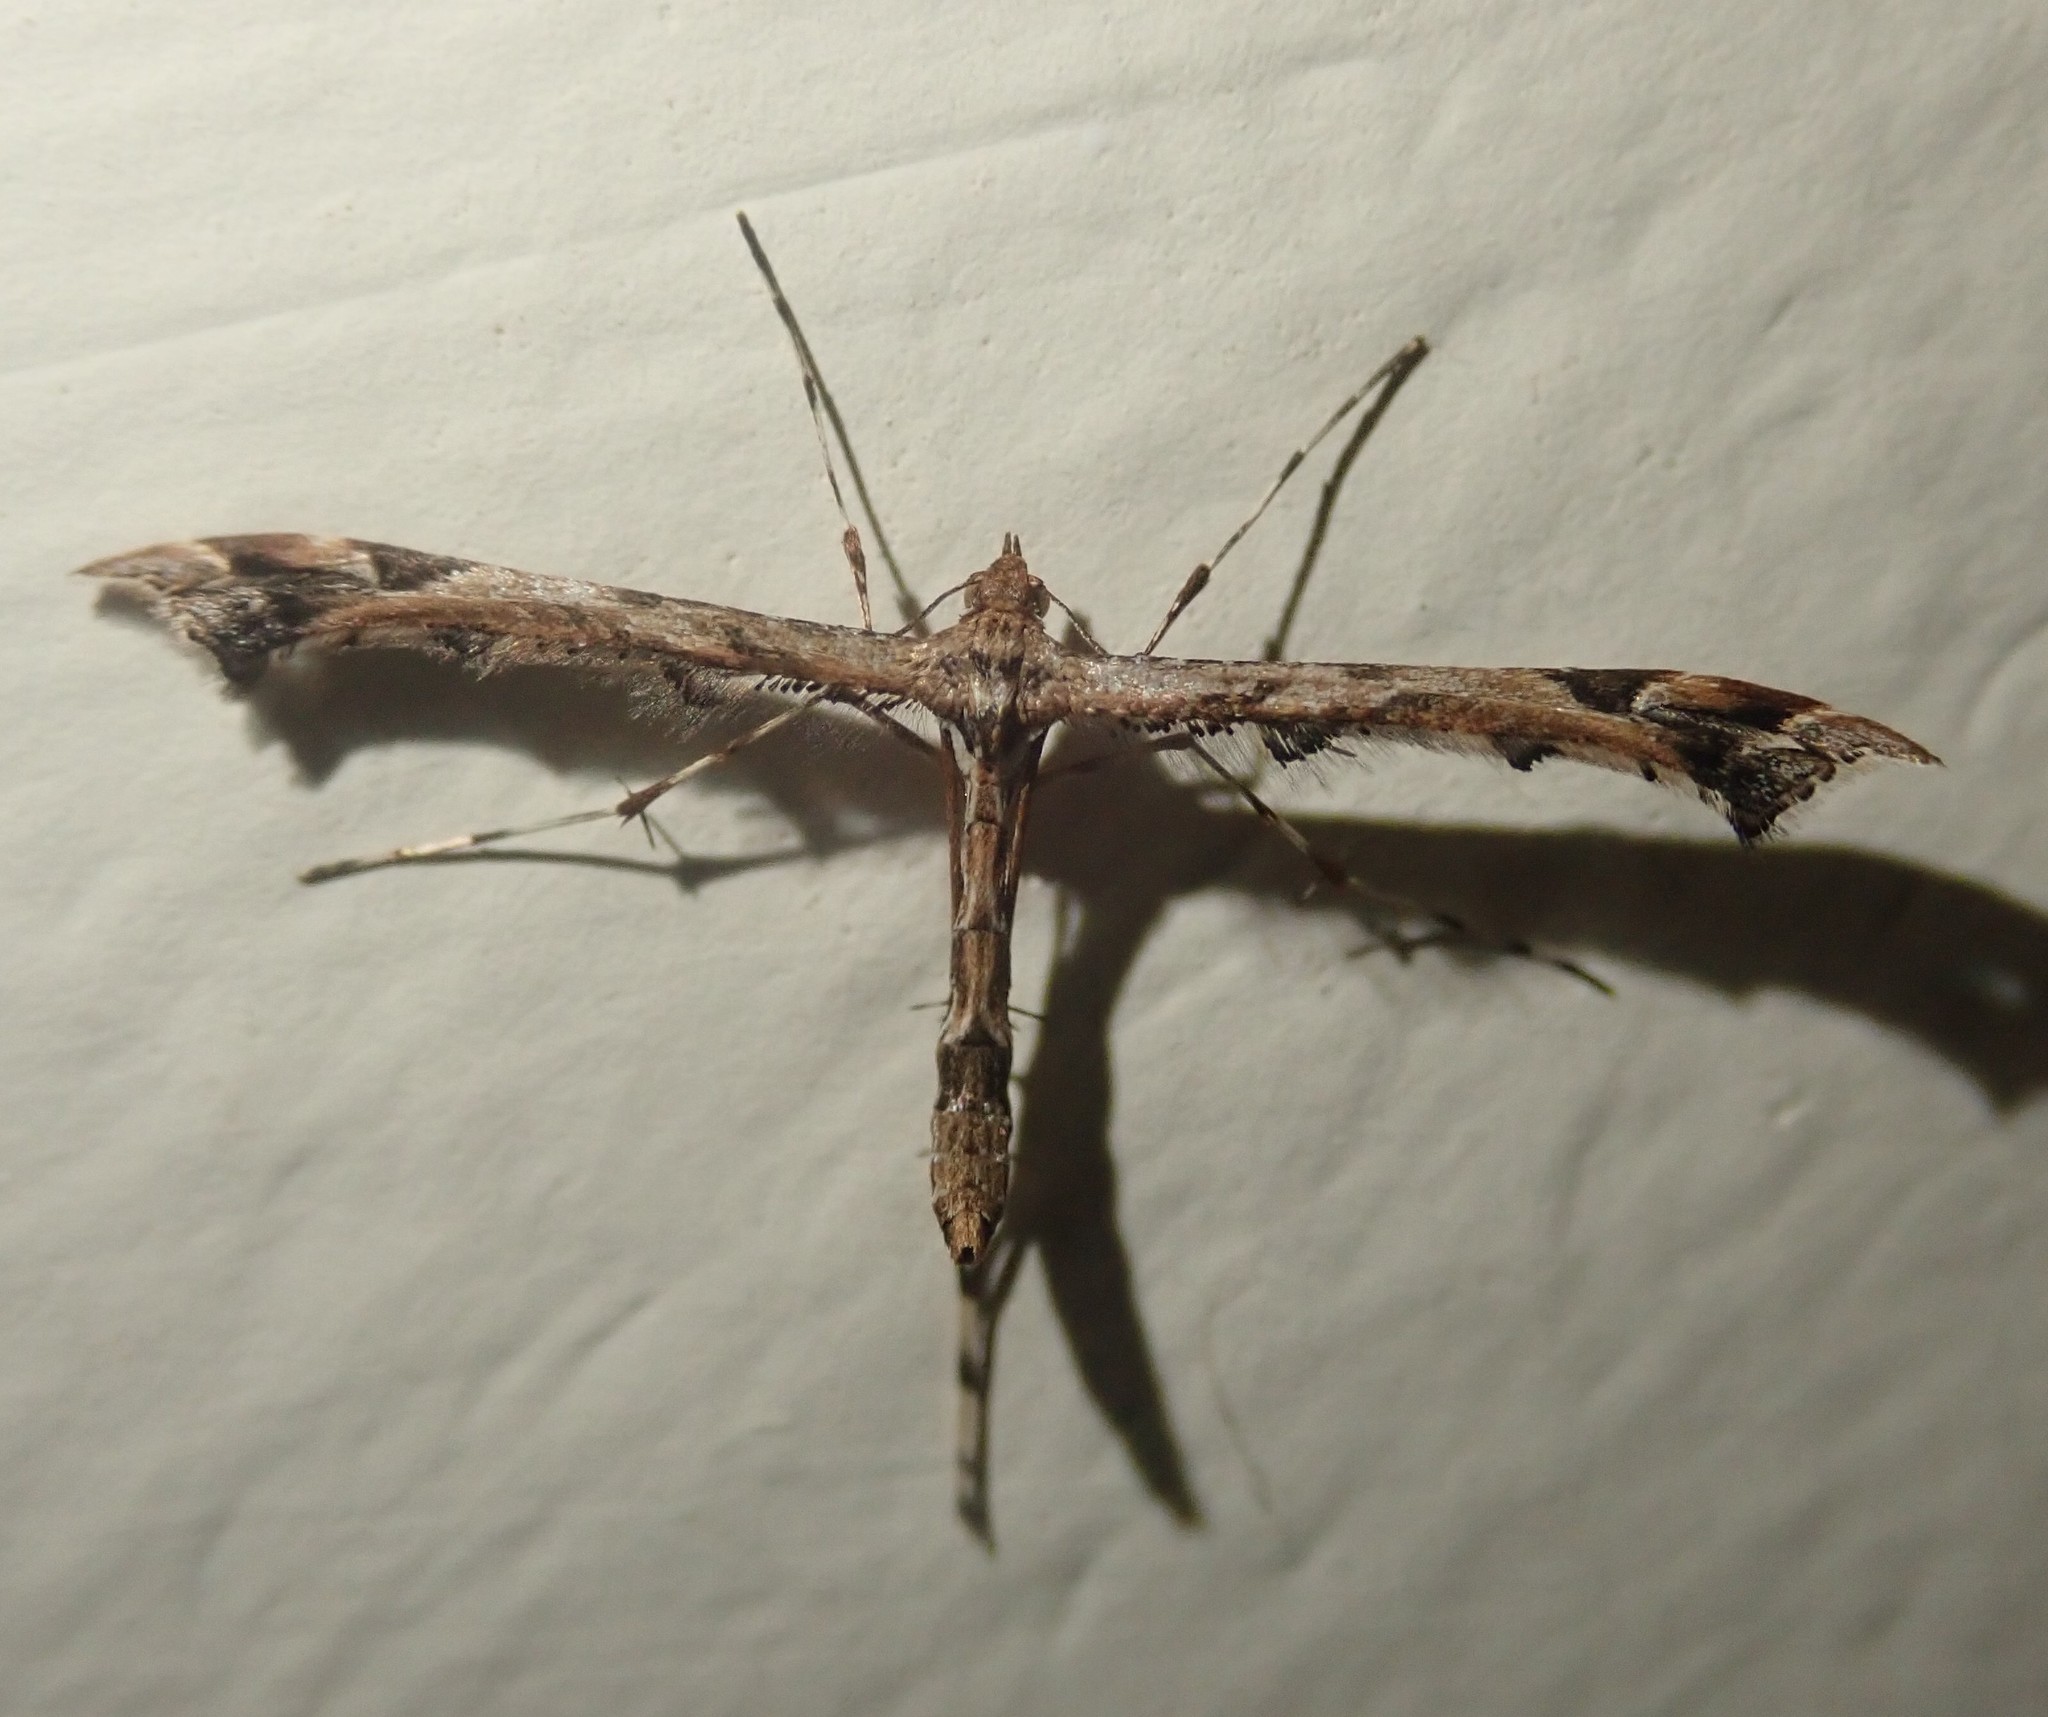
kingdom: Animalia
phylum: Arthropoda
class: Insecta
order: Lepidoptera
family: Pterophoridae
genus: Amblyptilia
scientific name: Amblyptilia acanthadactyla
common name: Beautiful plume
